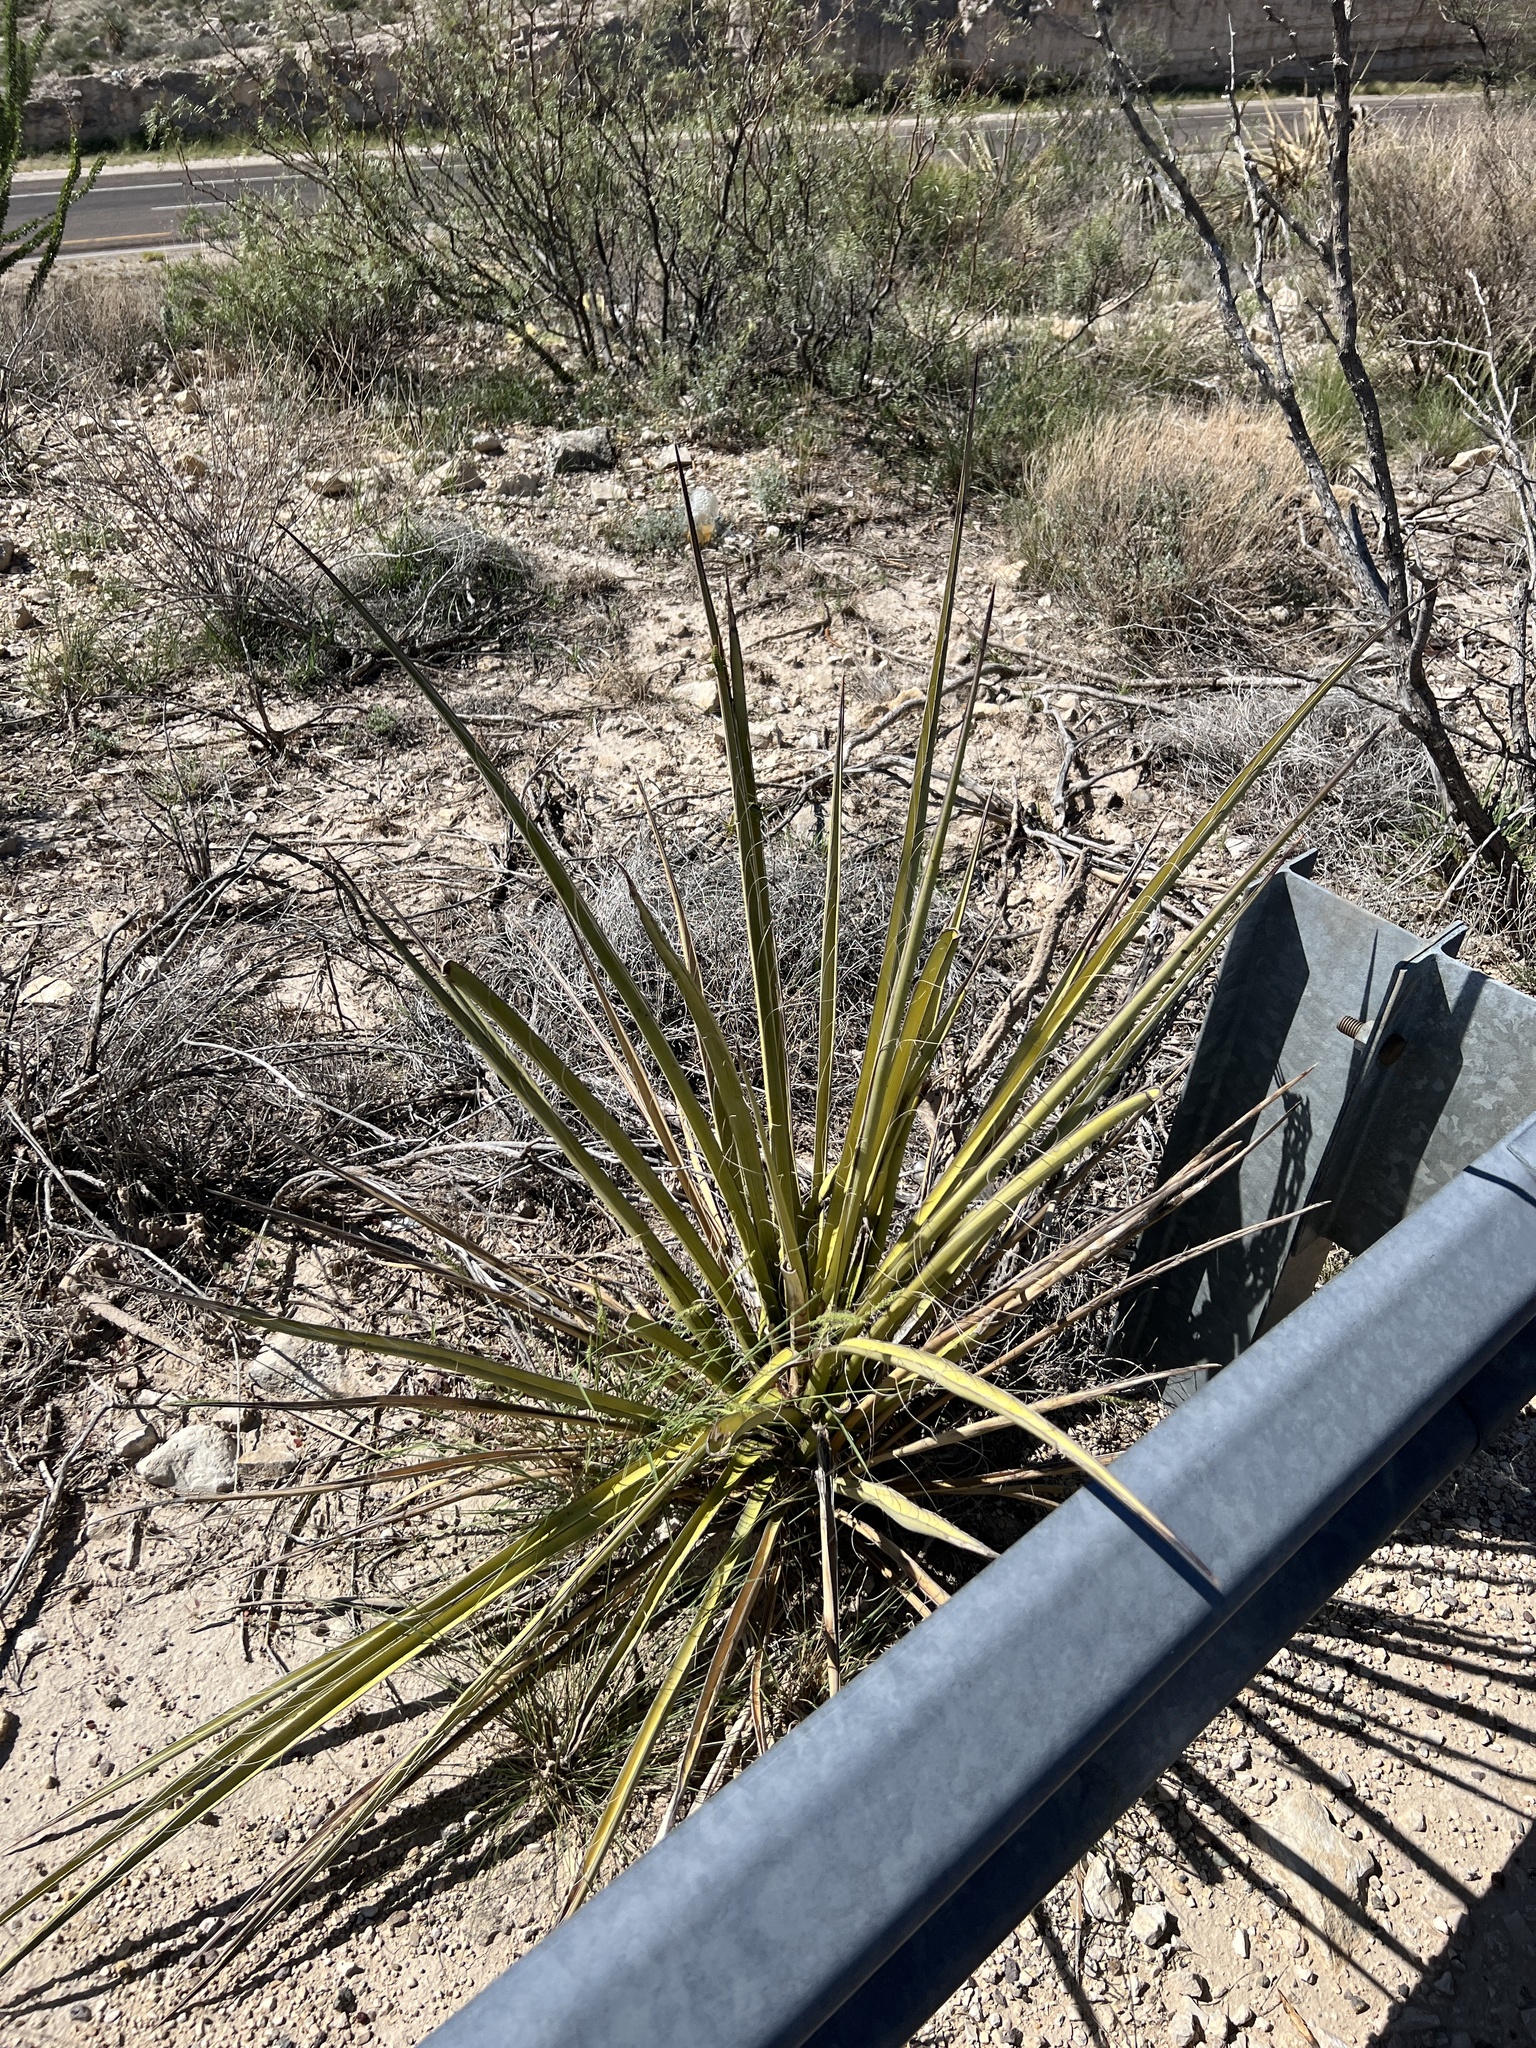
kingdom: Plantae
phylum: Tracheophyta
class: Liliopsida
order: Asparagales
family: Asparagaceae
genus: Yucca
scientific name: Yucca treculiana
